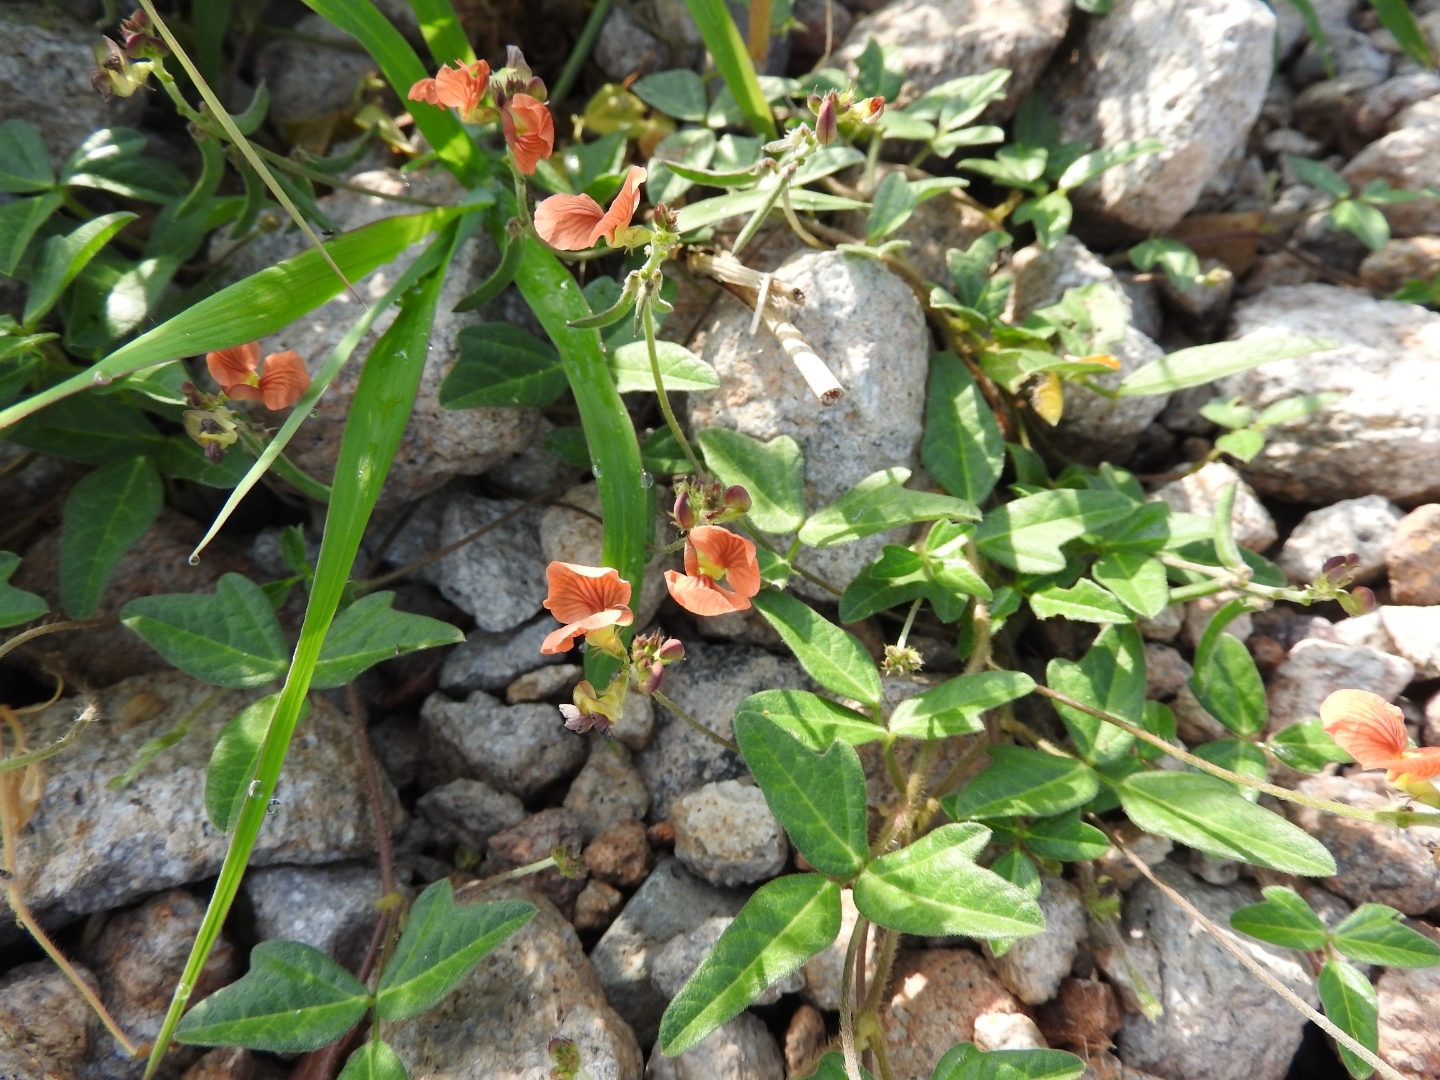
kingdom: Plantae
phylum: Tracheophyta
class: Magnoliopsida
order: Fabales
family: Fabaceae
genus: Macroptilium
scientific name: Macroptilium gibbosifolium
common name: Variableleaf bushbean
